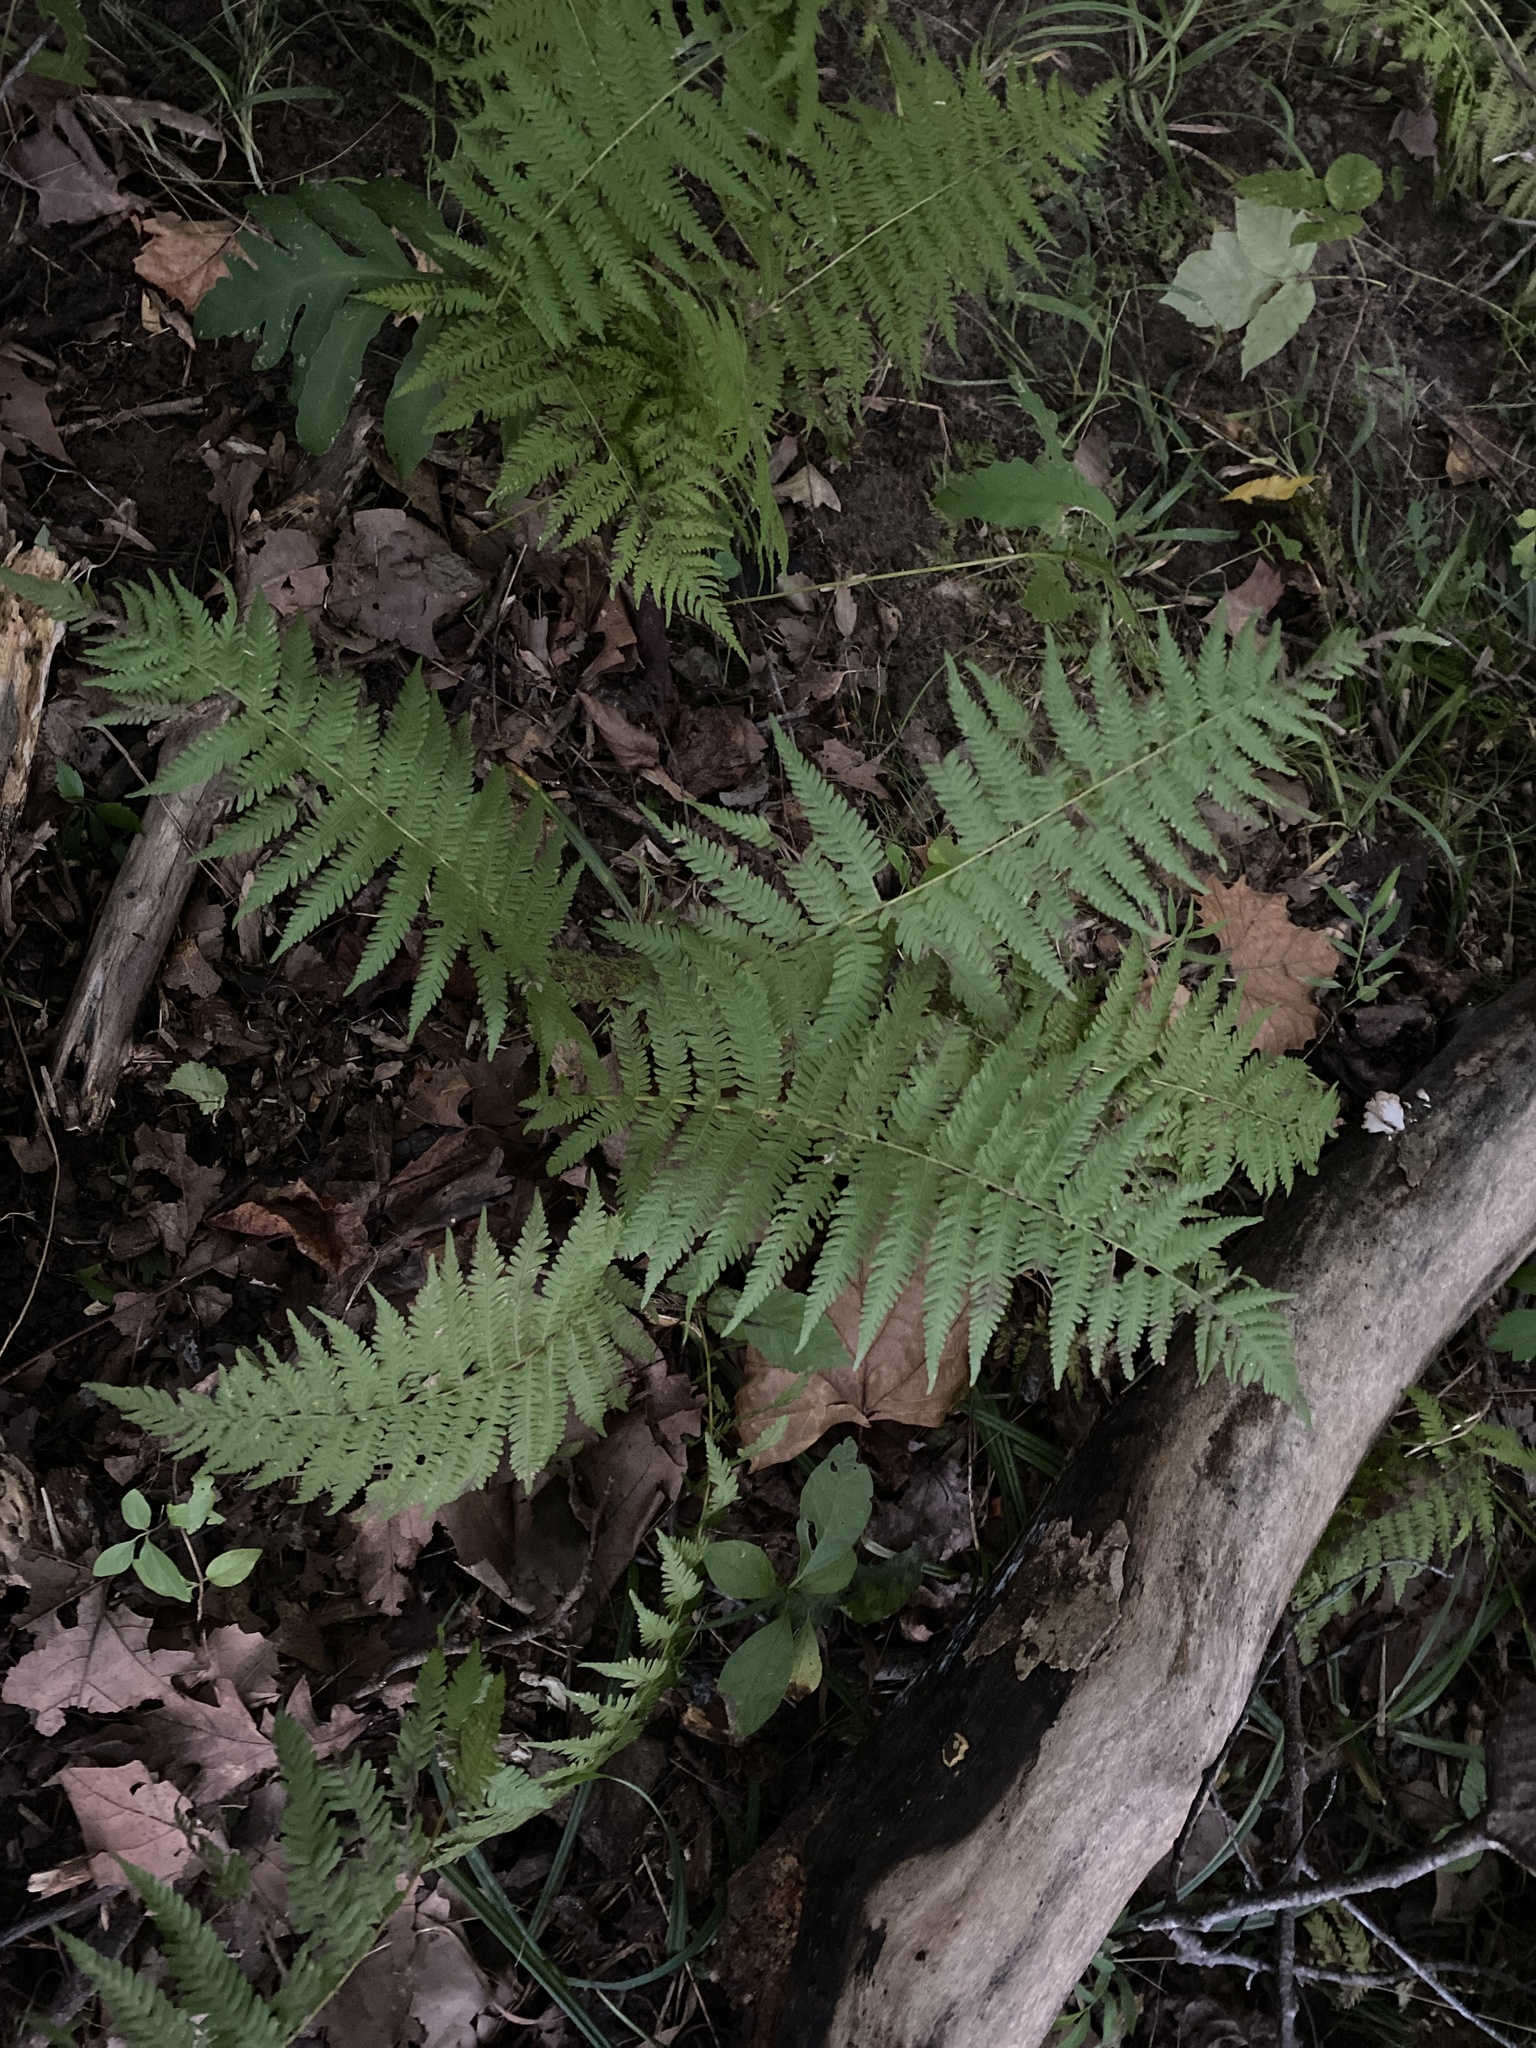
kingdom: Plantae
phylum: Tracheophyta
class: Polypodiopsida
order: Polypodiales
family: Thelypteridaceae
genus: Amauropelta
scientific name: Amauropelta noveboracensis
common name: New york fern
